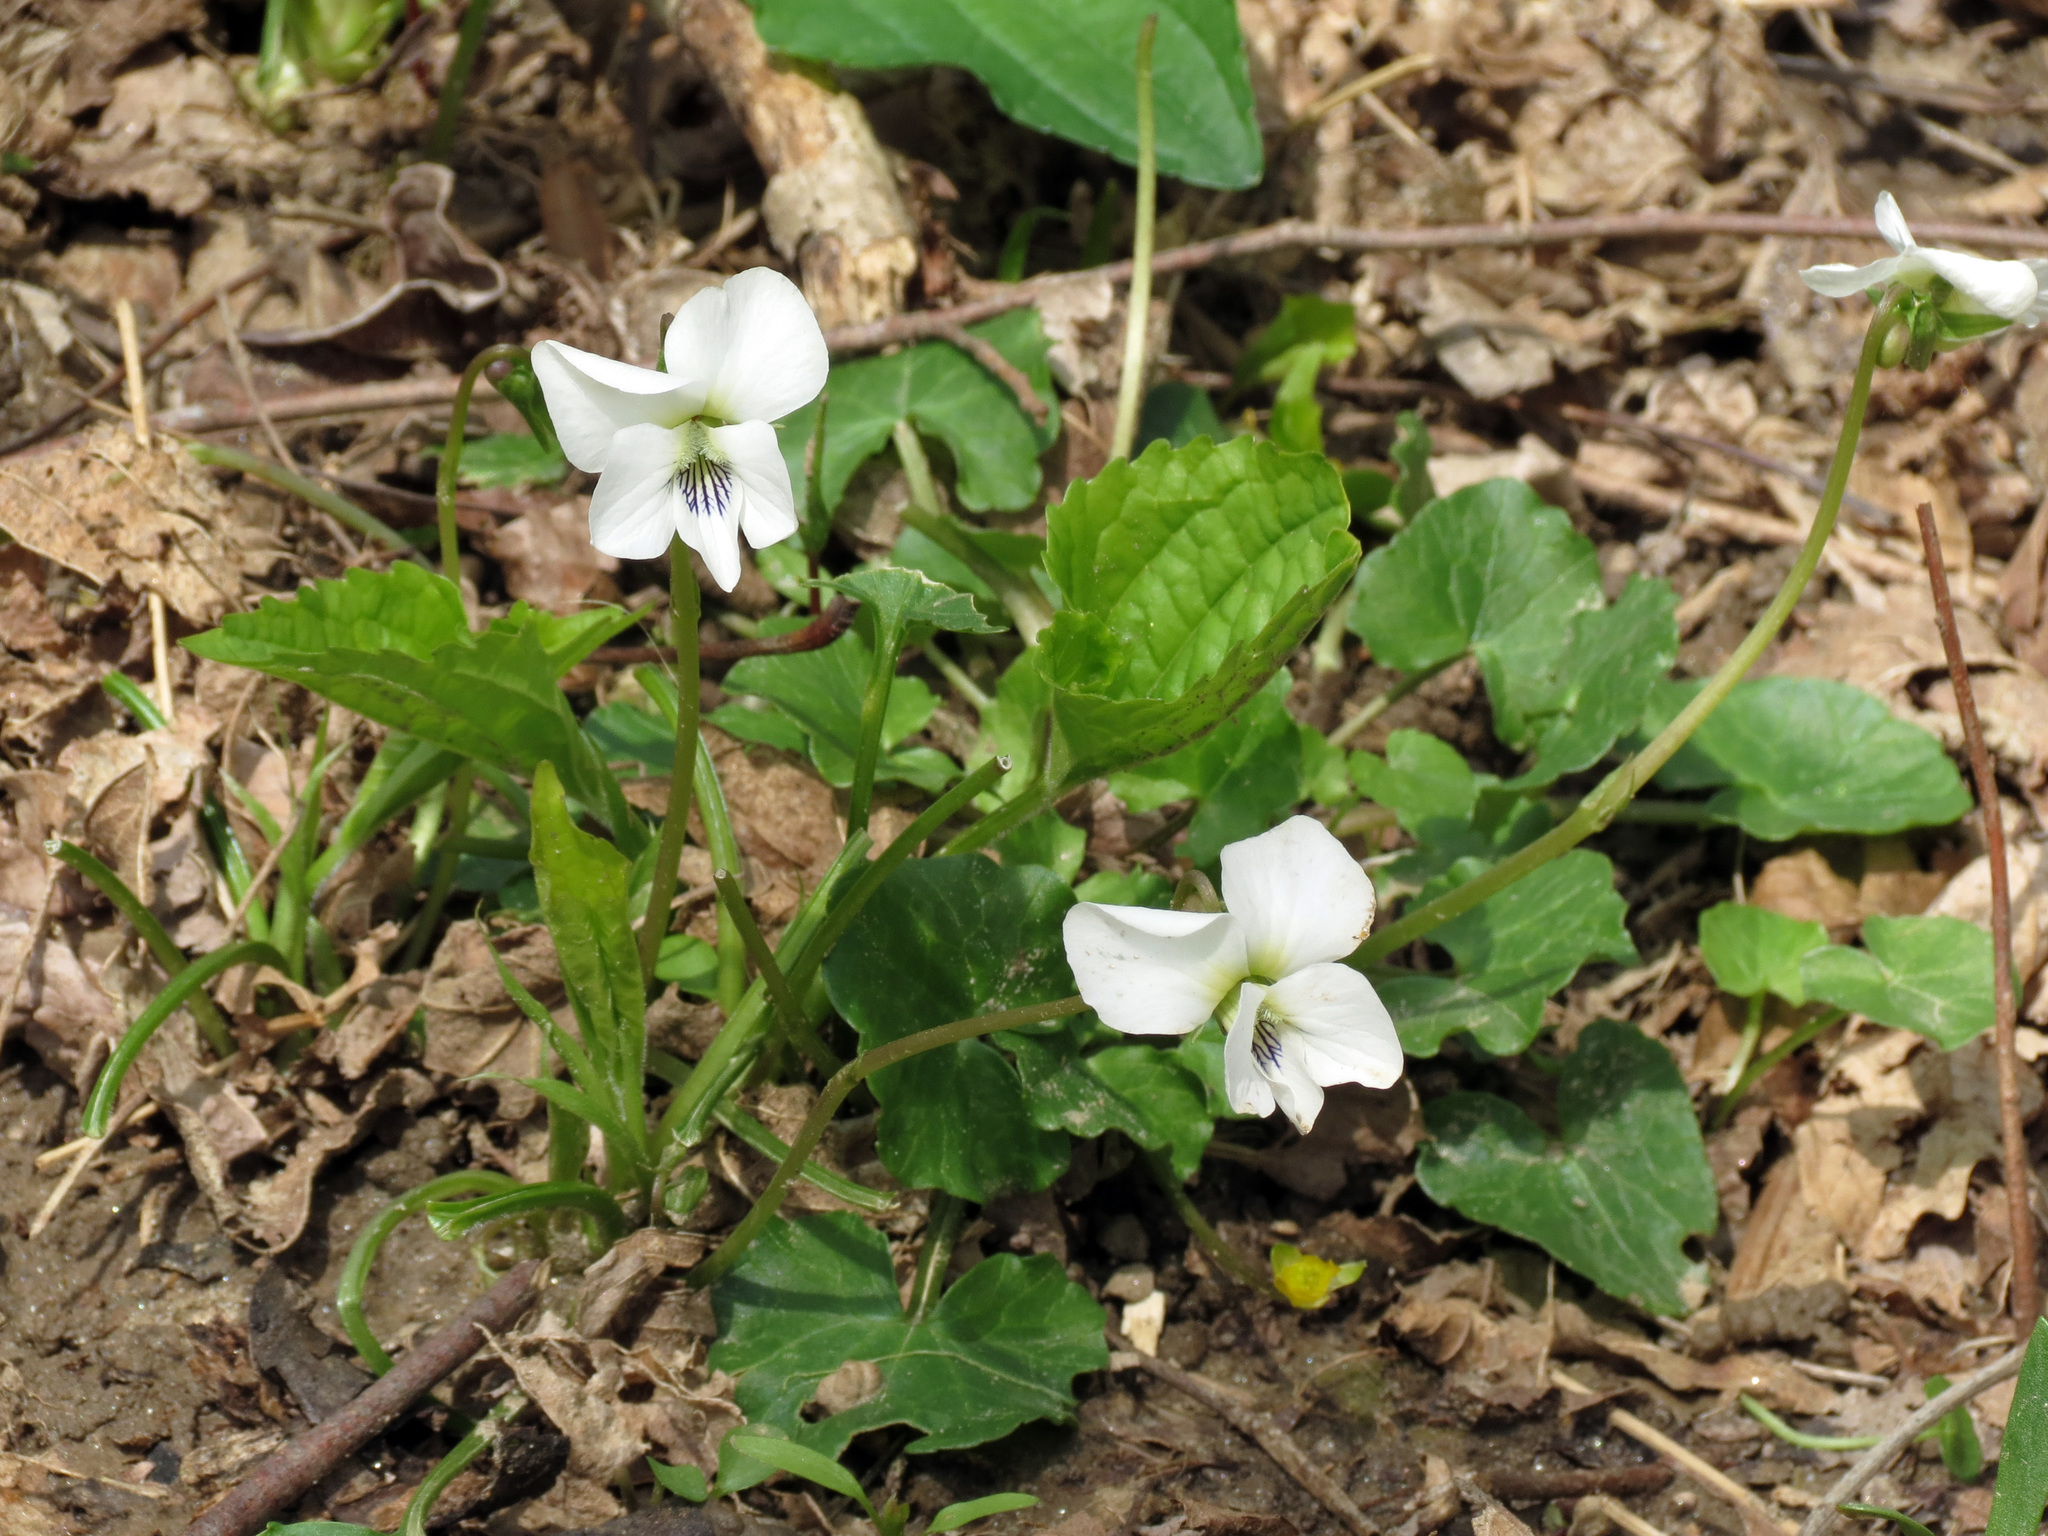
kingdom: Plantae
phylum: Tracheophyta
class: Magnoliopsida
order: Malpighiales
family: Violaceae
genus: Viola
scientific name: Viola striata
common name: Cream violet
